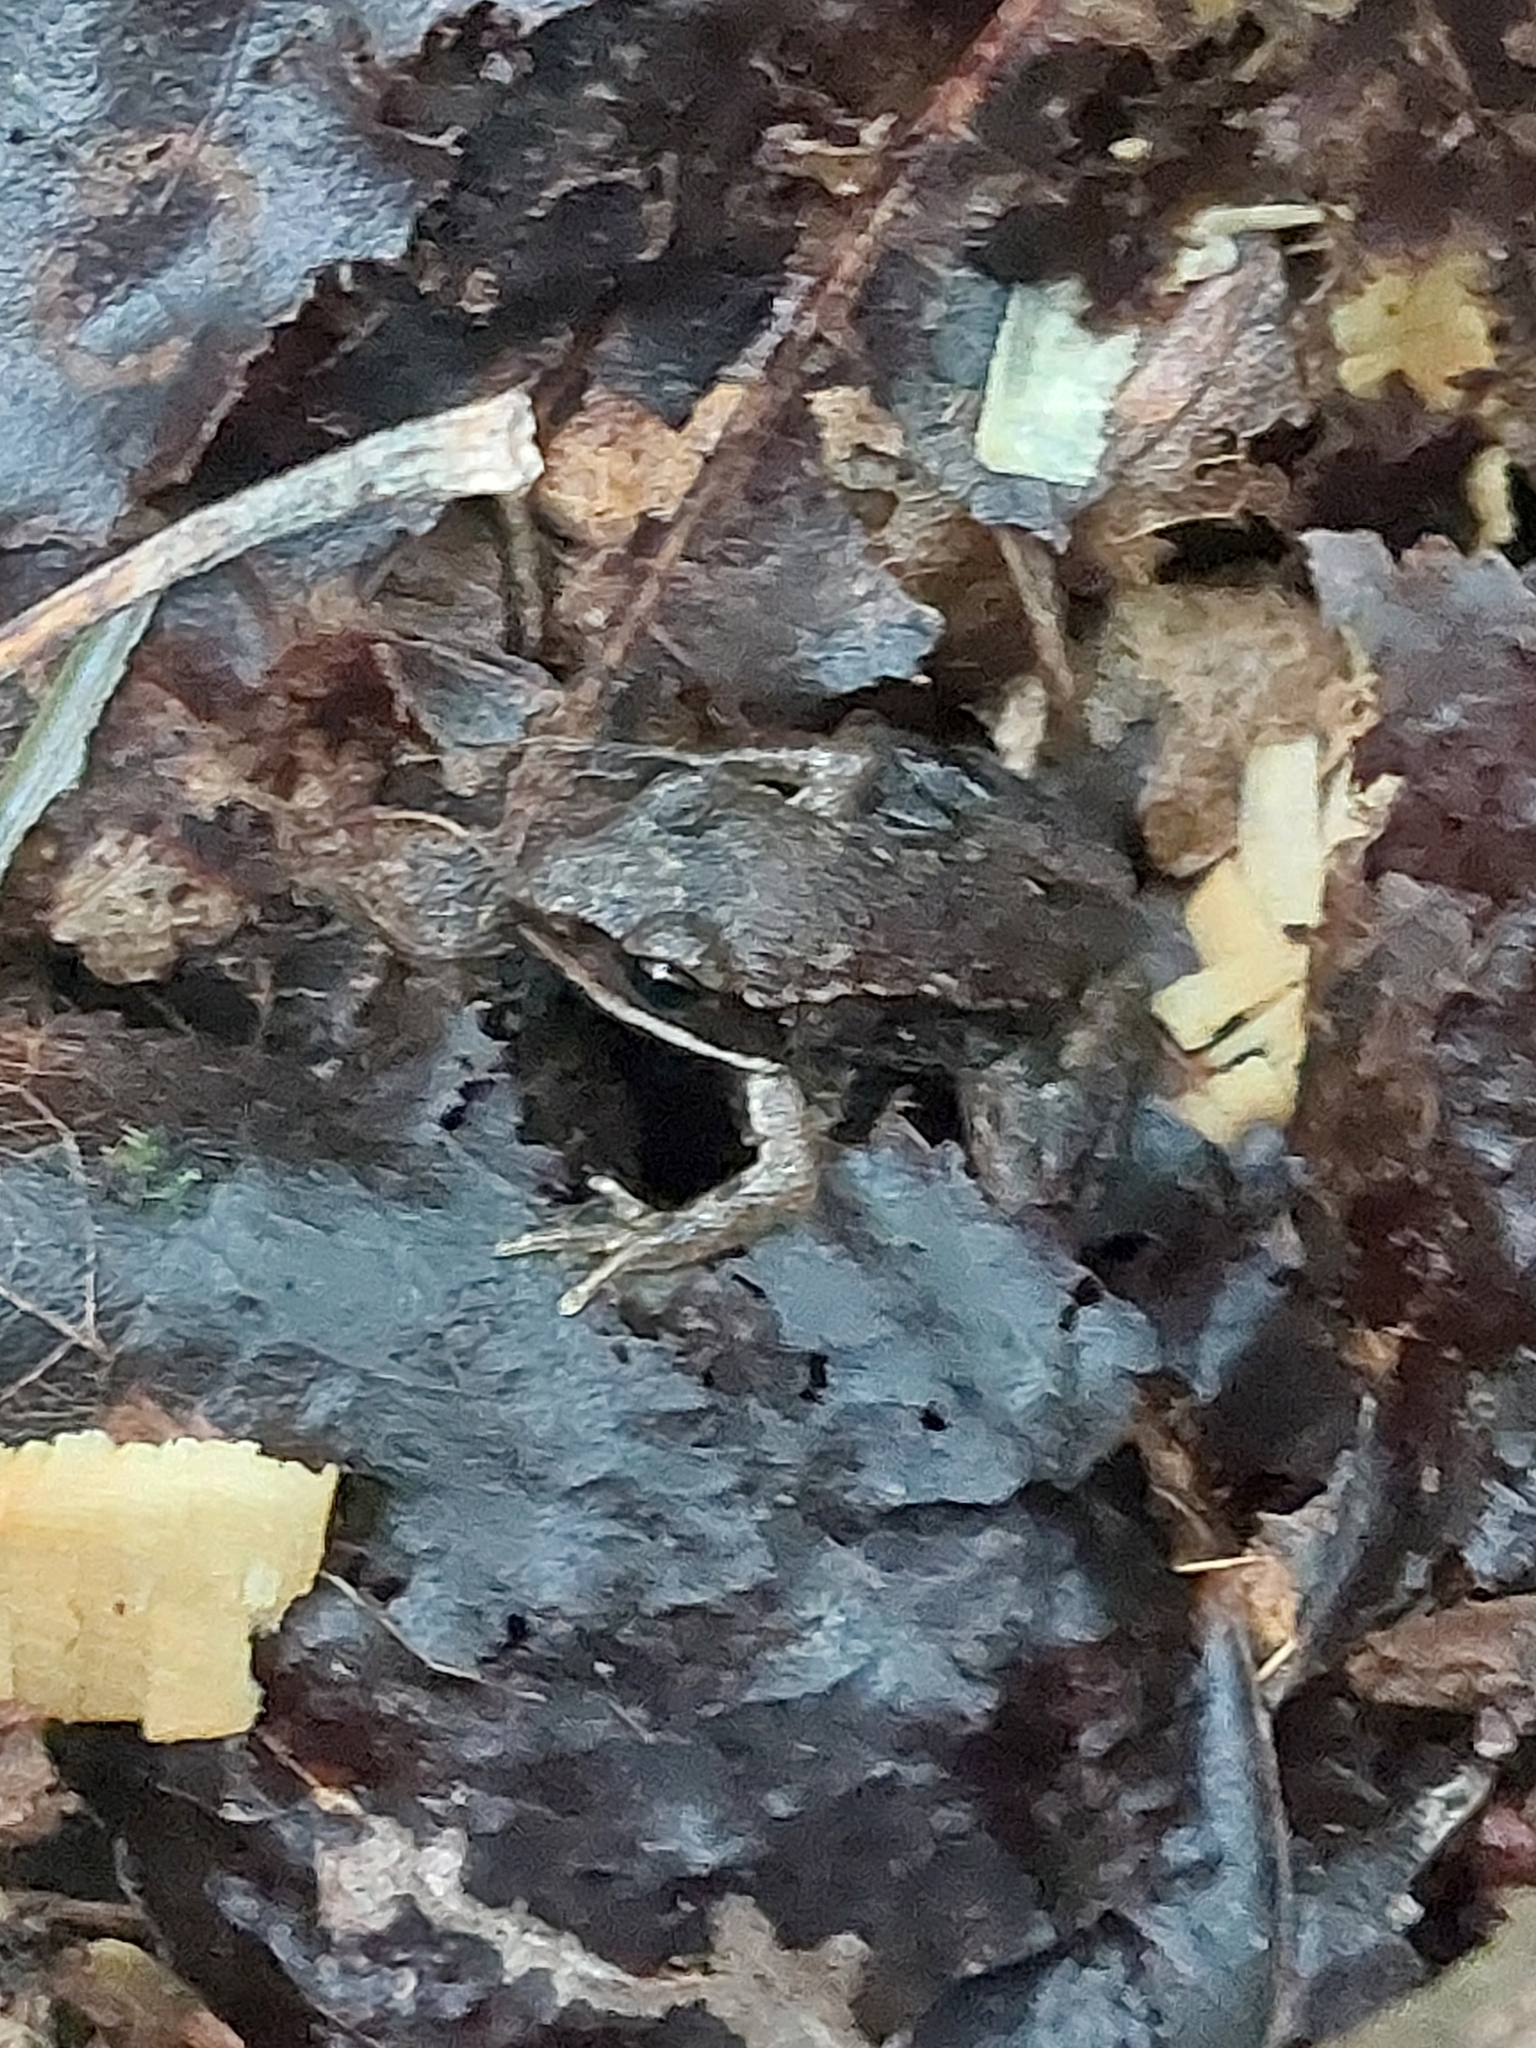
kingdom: Animalia
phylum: Chordata
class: Amphibia
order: Anura
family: Ranidae
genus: Lithobates
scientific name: Lithobates sylvaticus
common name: Wood frog
